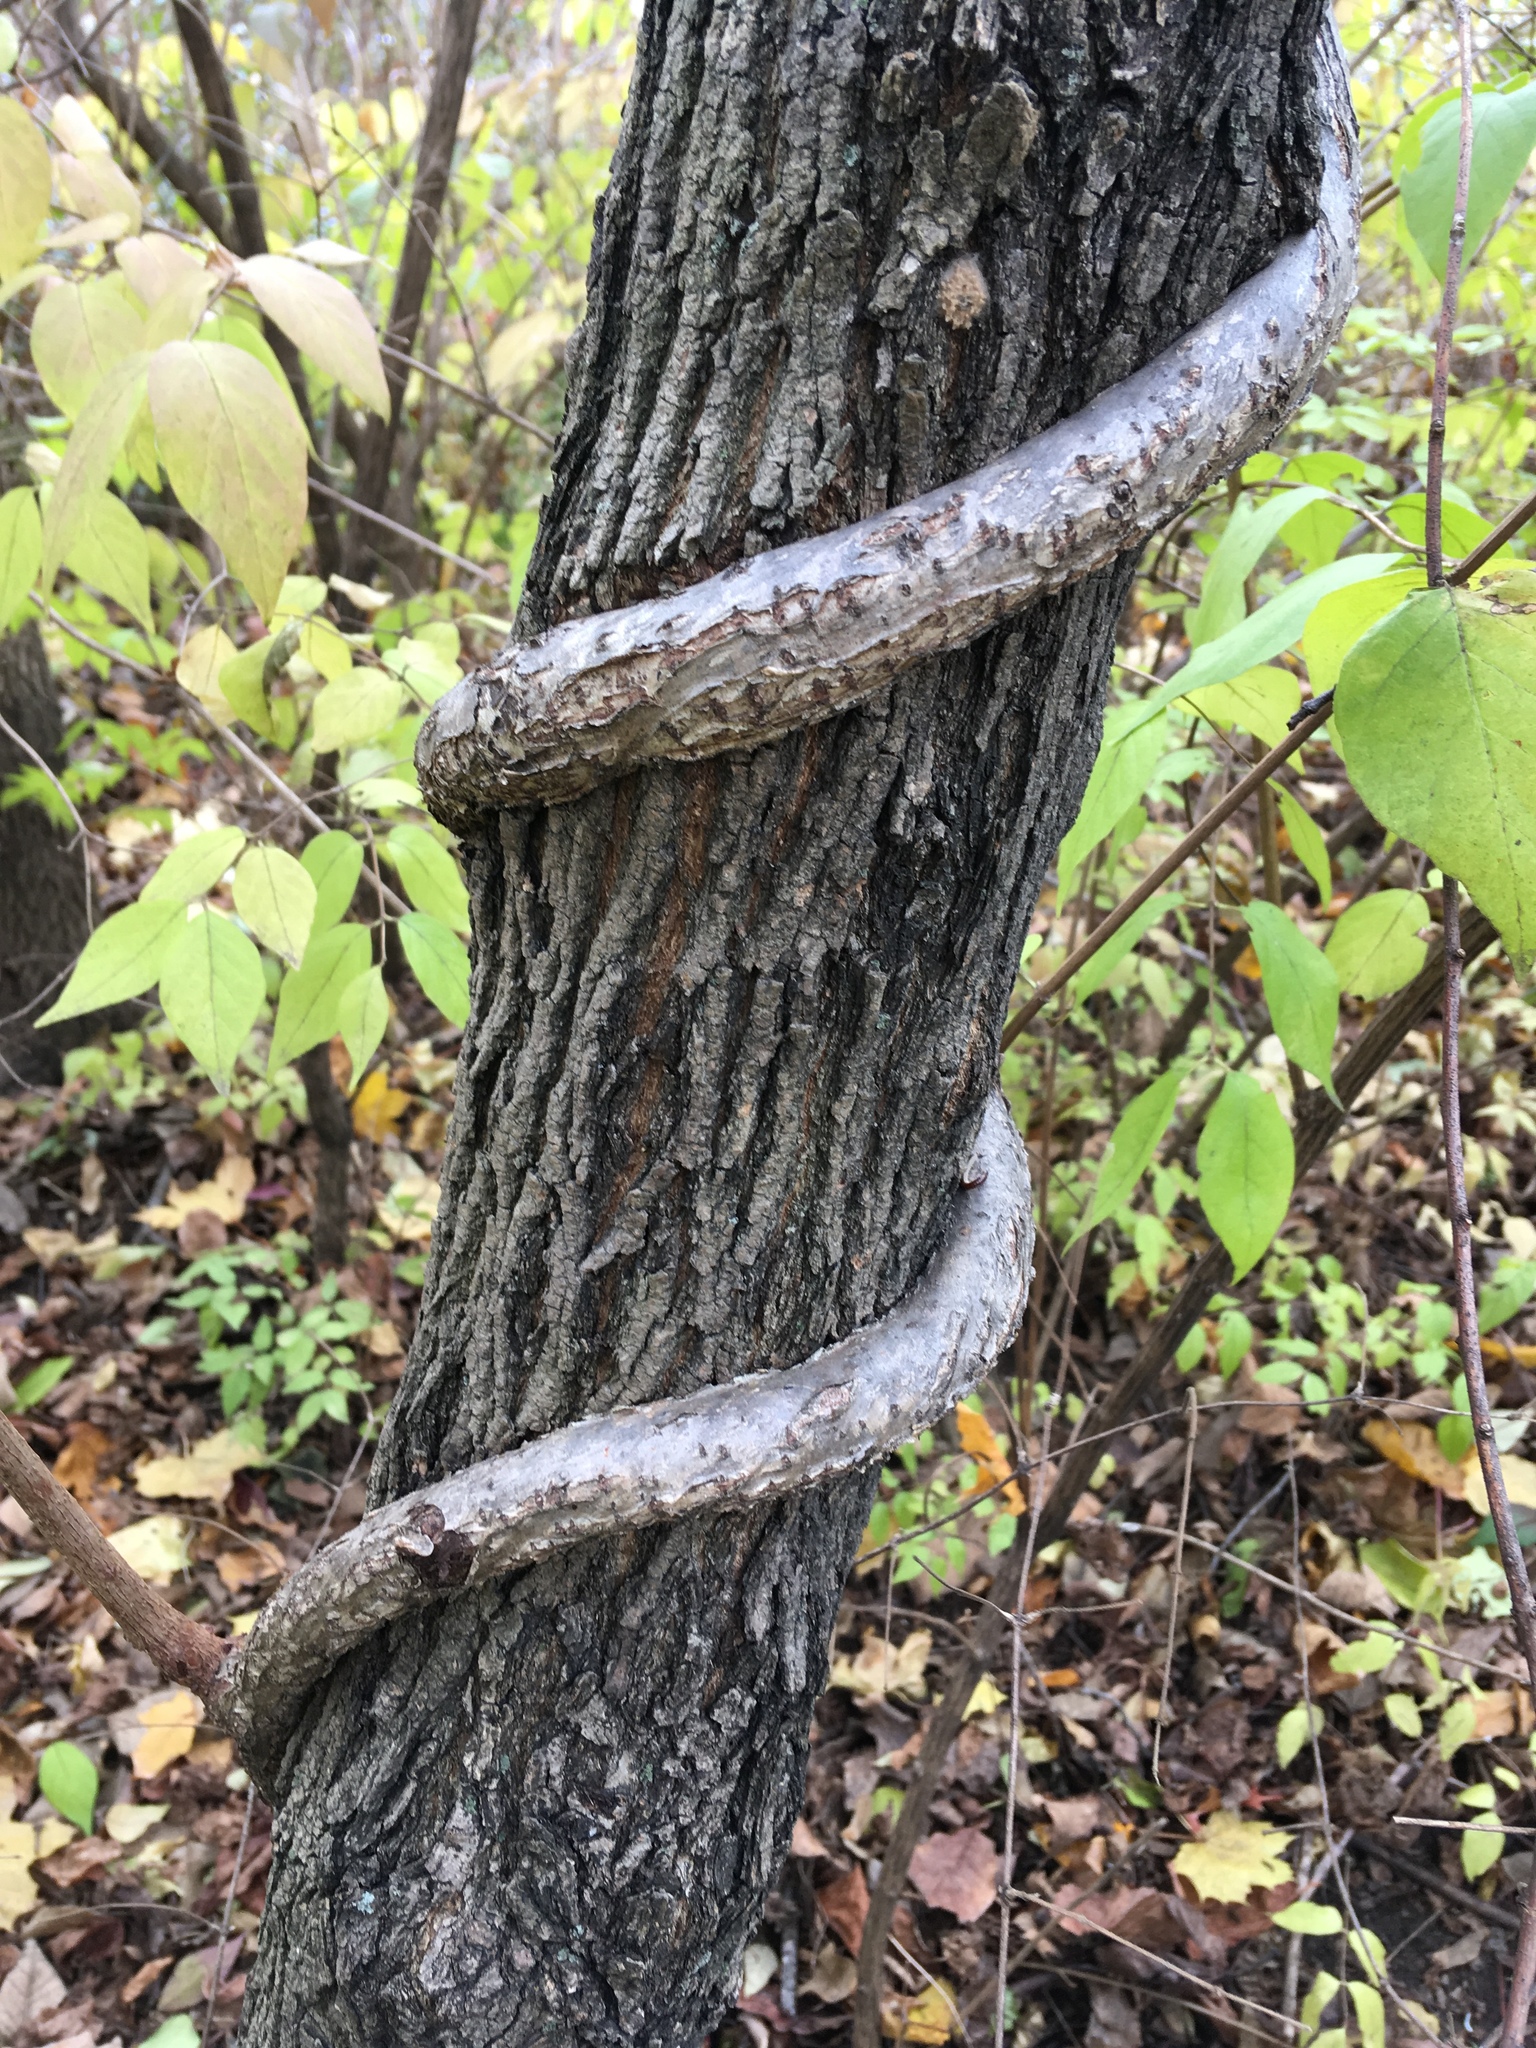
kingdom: Plantae
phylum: Tracheophyta
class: Magnoliopsida
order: Celastrales
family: Celastraceae
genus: Celastrus
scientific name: Celastrus orbiculatus
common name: Oriental bittersweet
